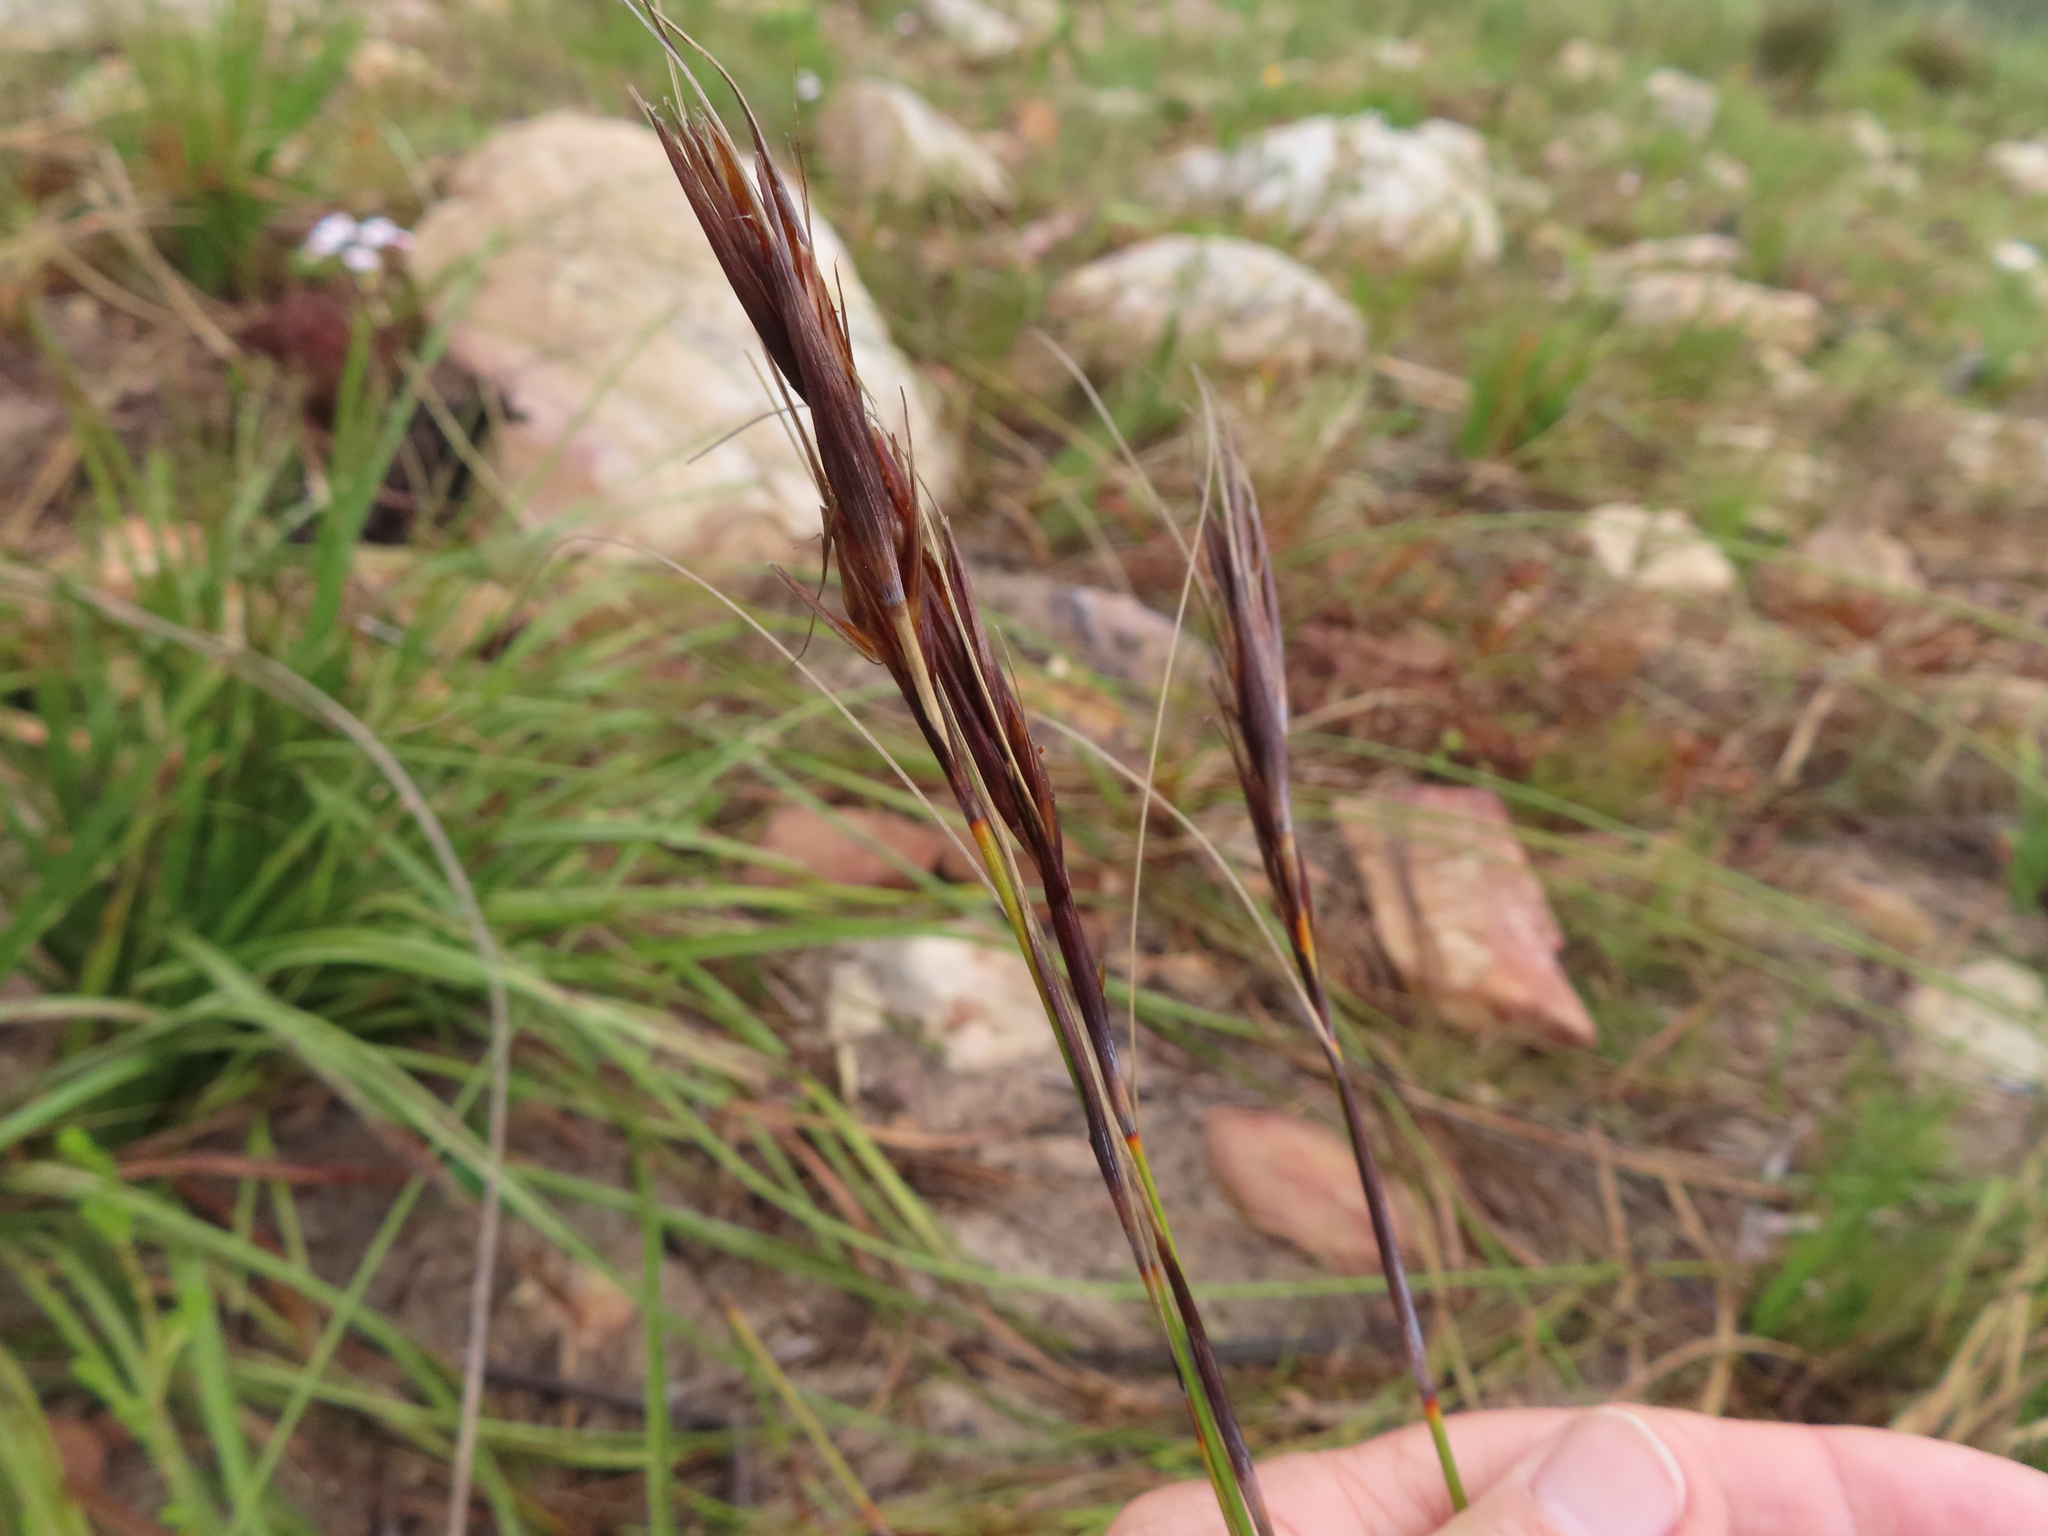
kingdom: Plantae
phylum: Tracheophyta
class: Liliopsida
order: Poales
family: Cyperaceae
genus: Tetraria
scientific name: Tetraria ustulata
